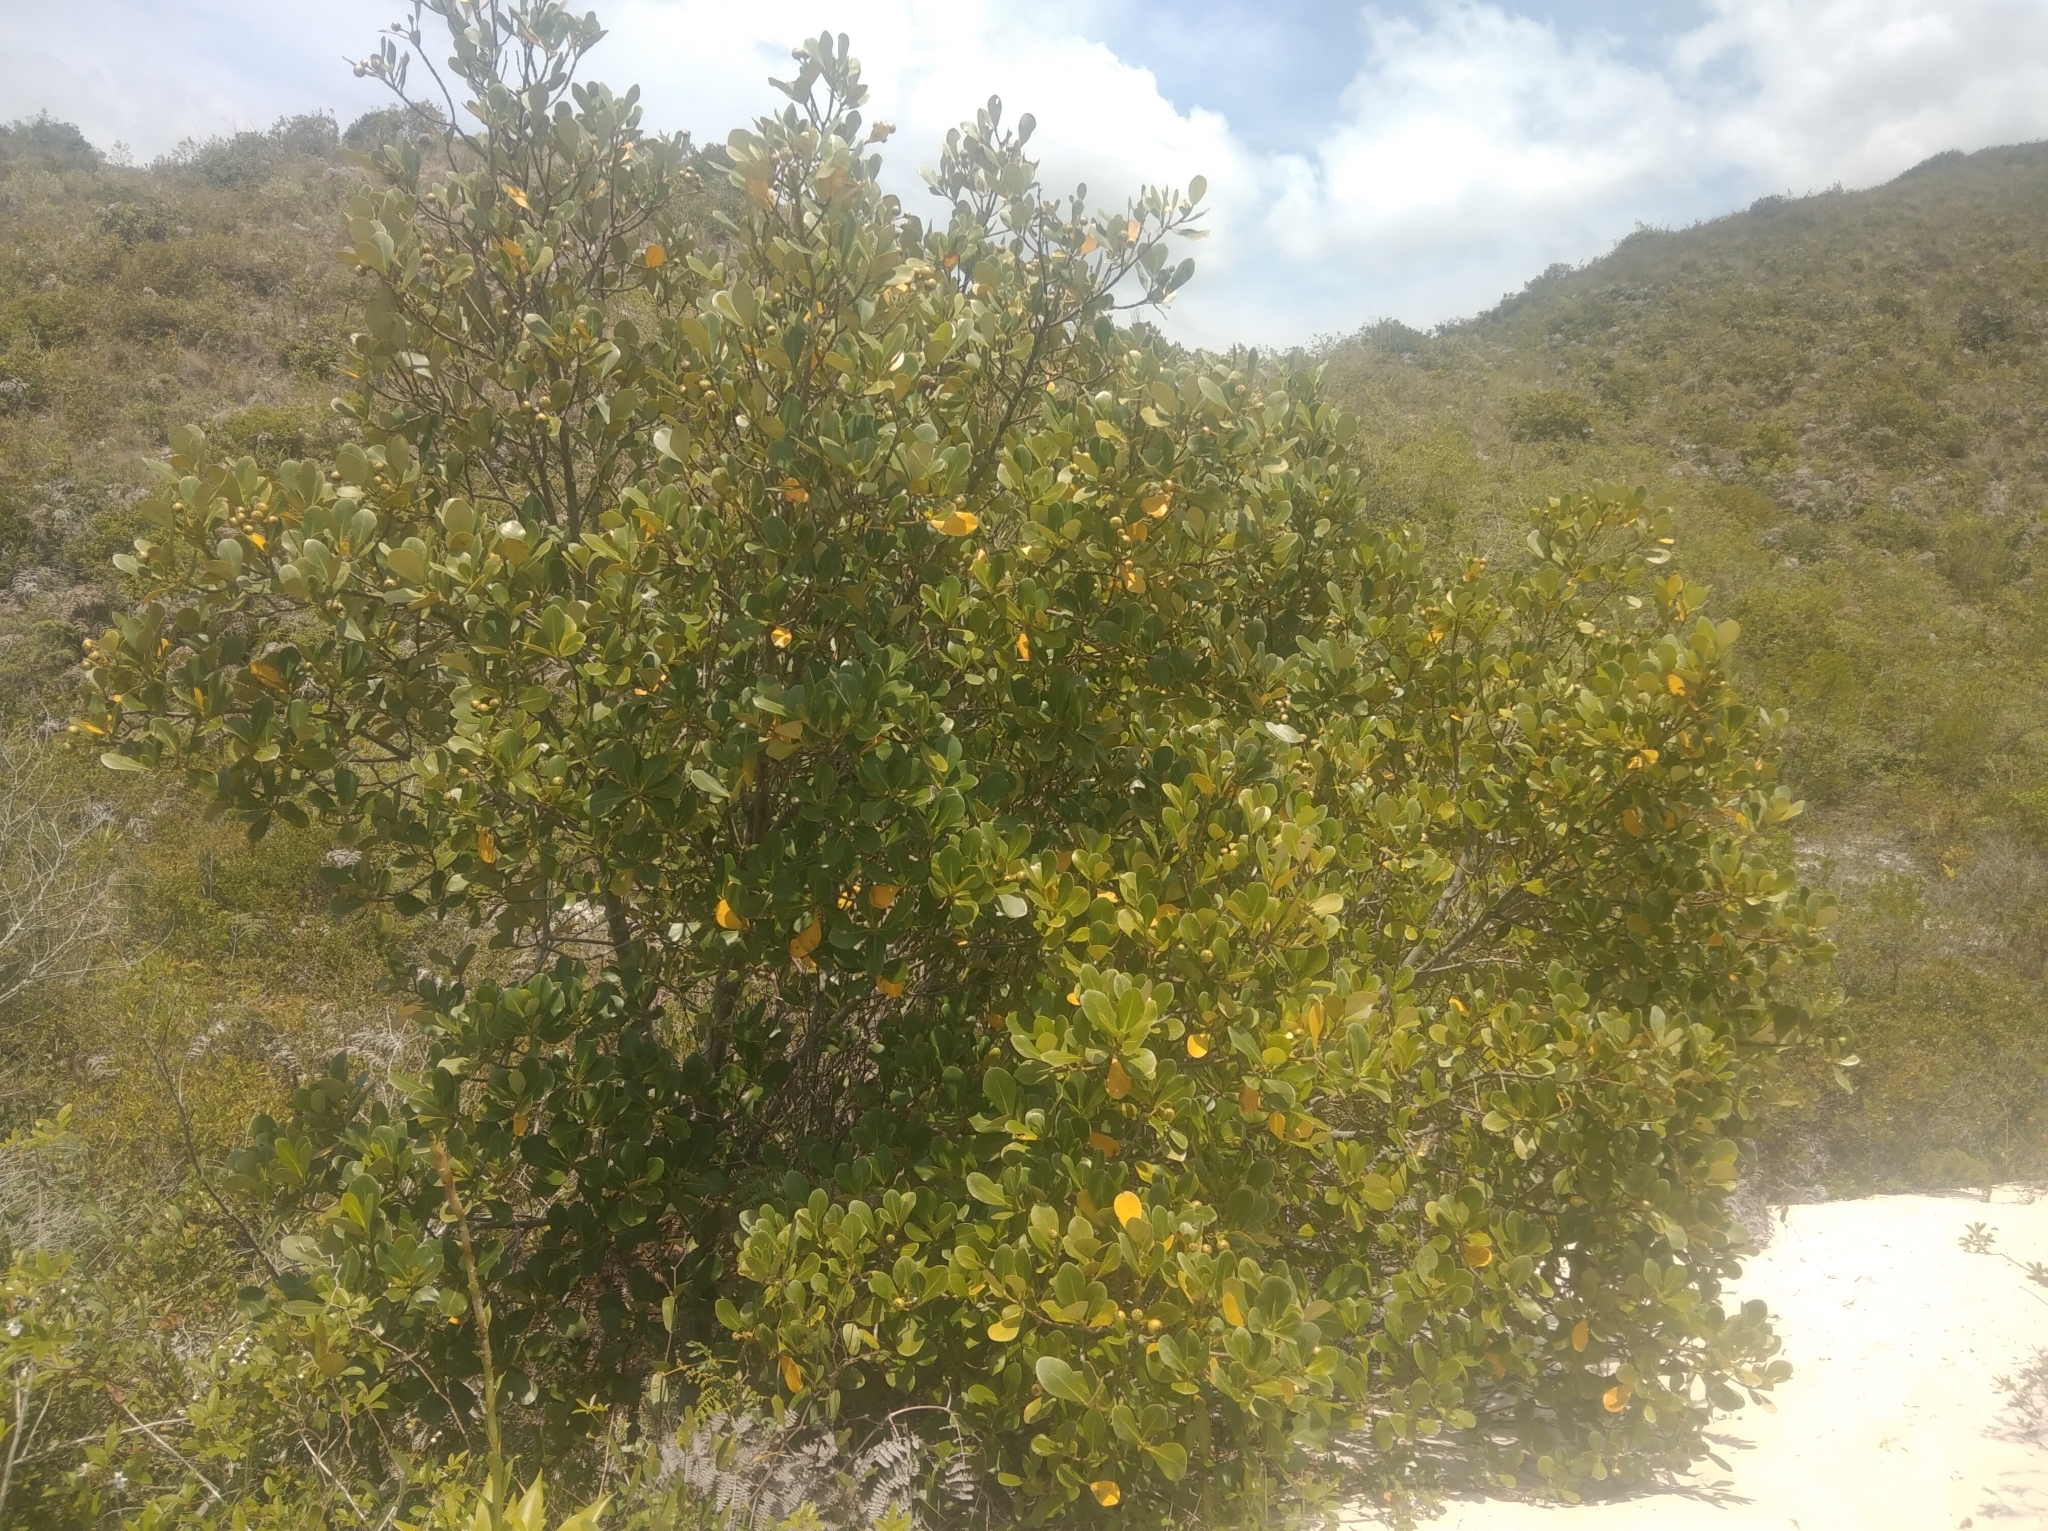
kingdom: Plantae
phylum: Tracheophyta
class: Magnoliopsida
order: Malpighiales
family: Clusiaceae
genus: Clusia
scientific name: Clusia criuva
